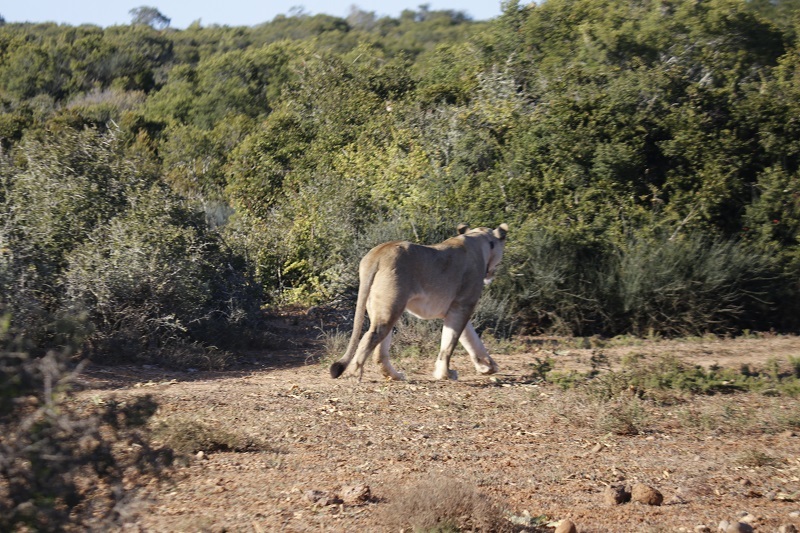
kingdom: Animalia
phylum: Chordata
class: Mammalia
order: Carnivora
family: Felidae
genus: Panthera
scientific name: Panthera leo
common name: Lion
